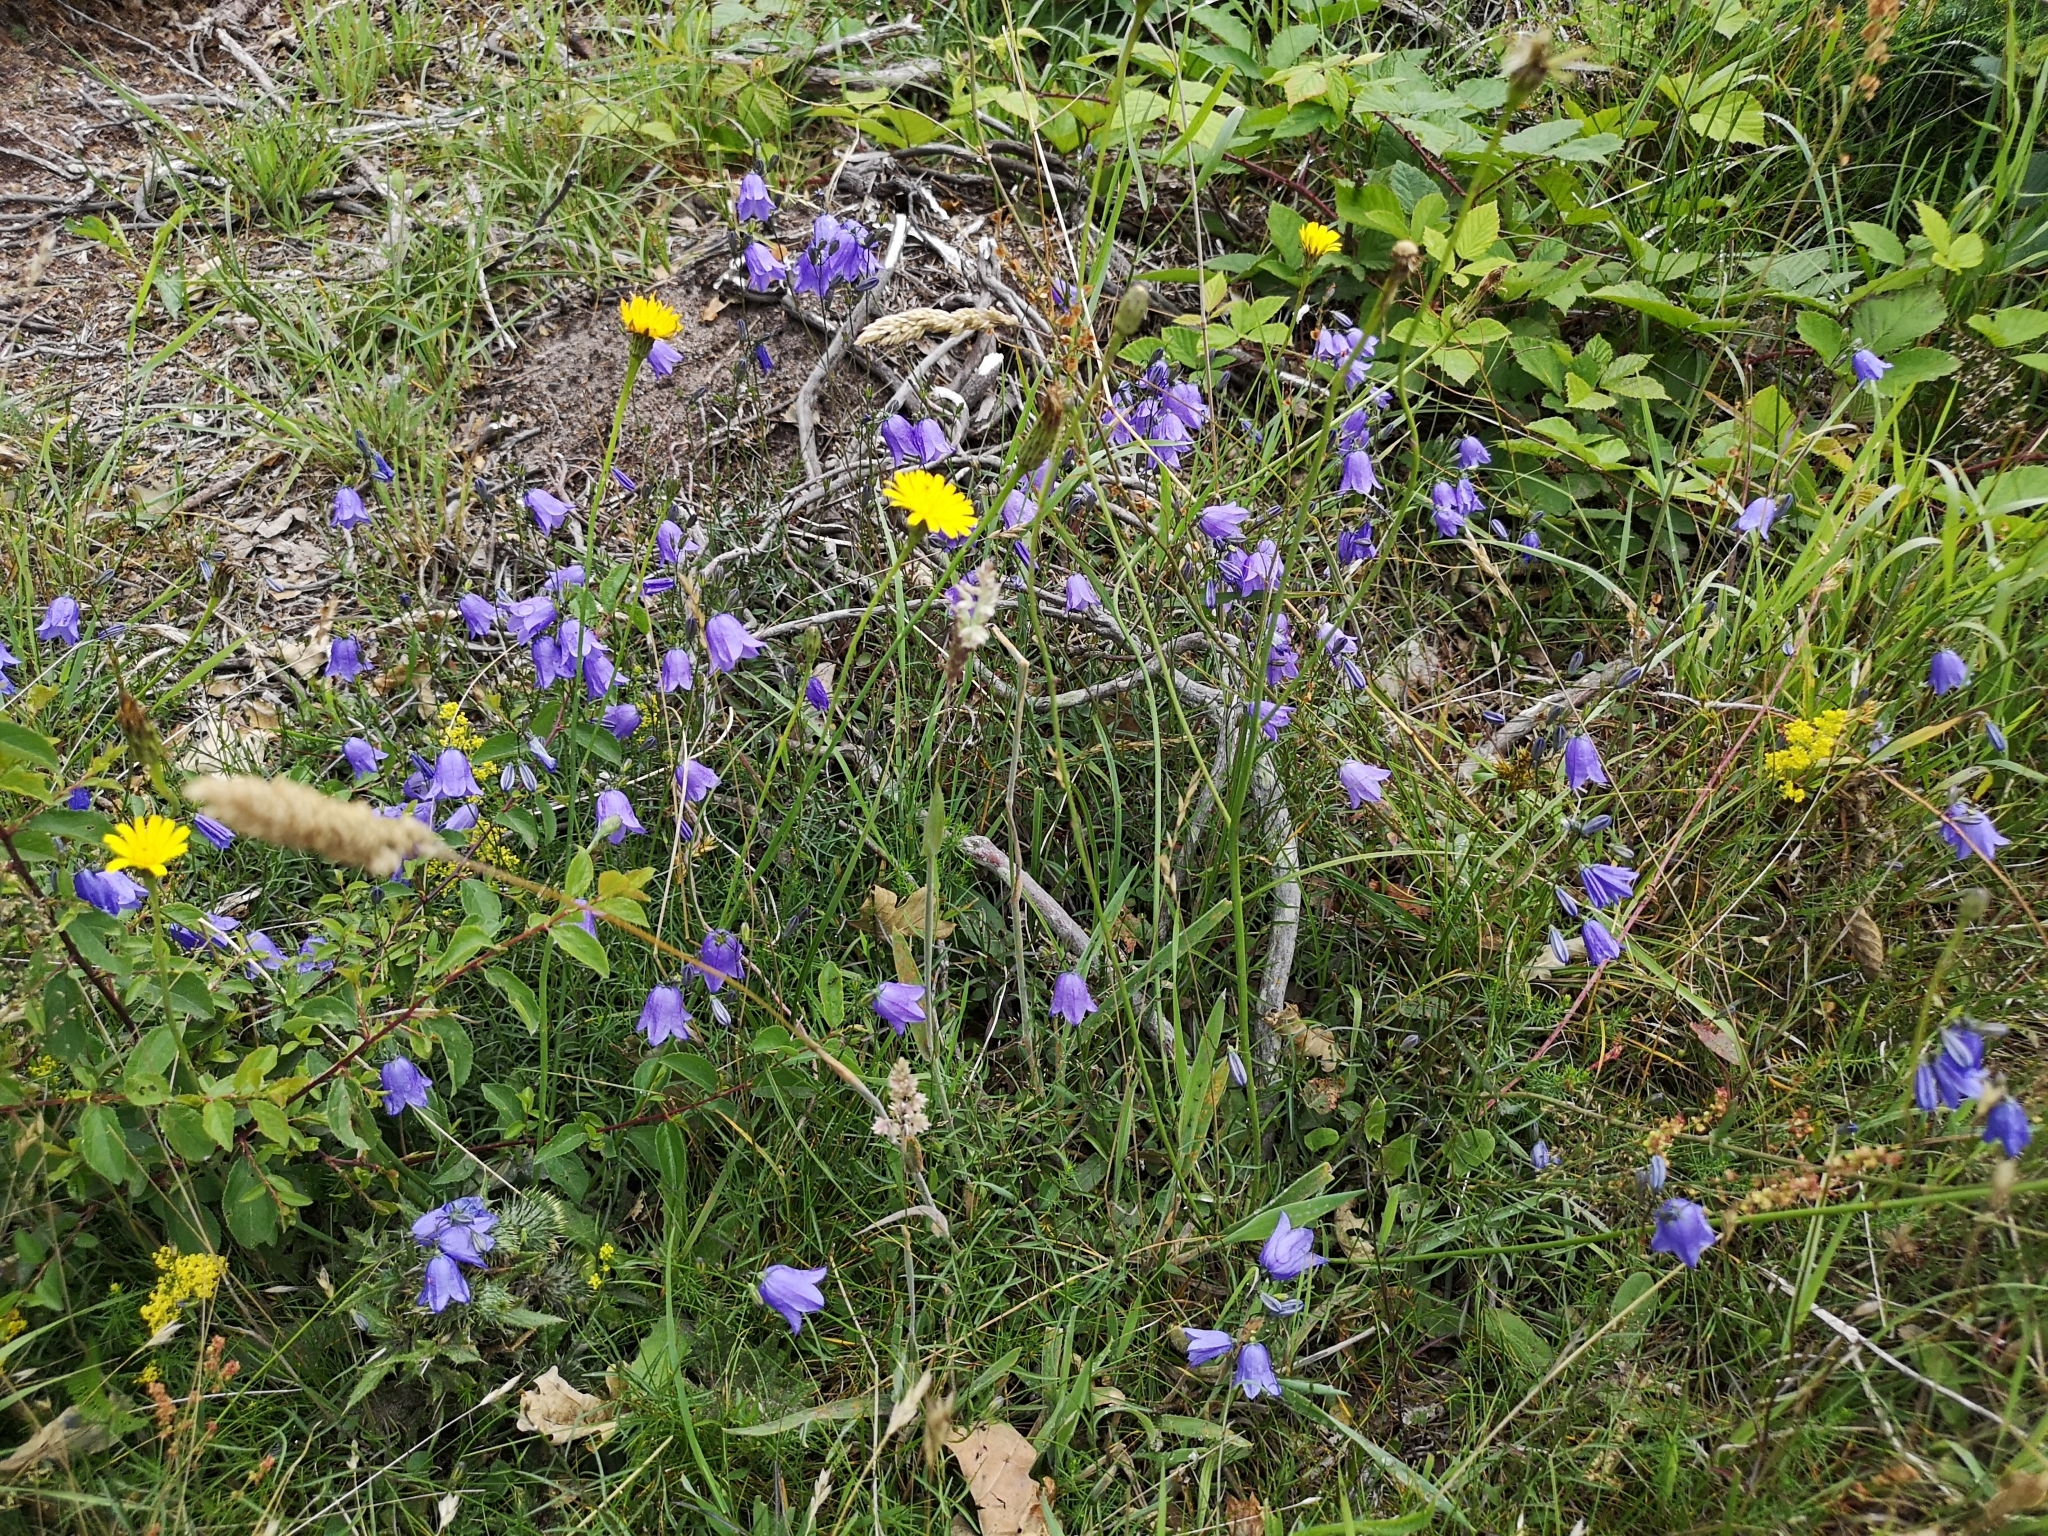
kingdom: Plantae
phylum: Tracheophyta
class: Magnoliopsida
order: Asterales
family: Campanulaceae
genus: Campanula
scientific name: Campanula rotundifolia
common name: Harebell
